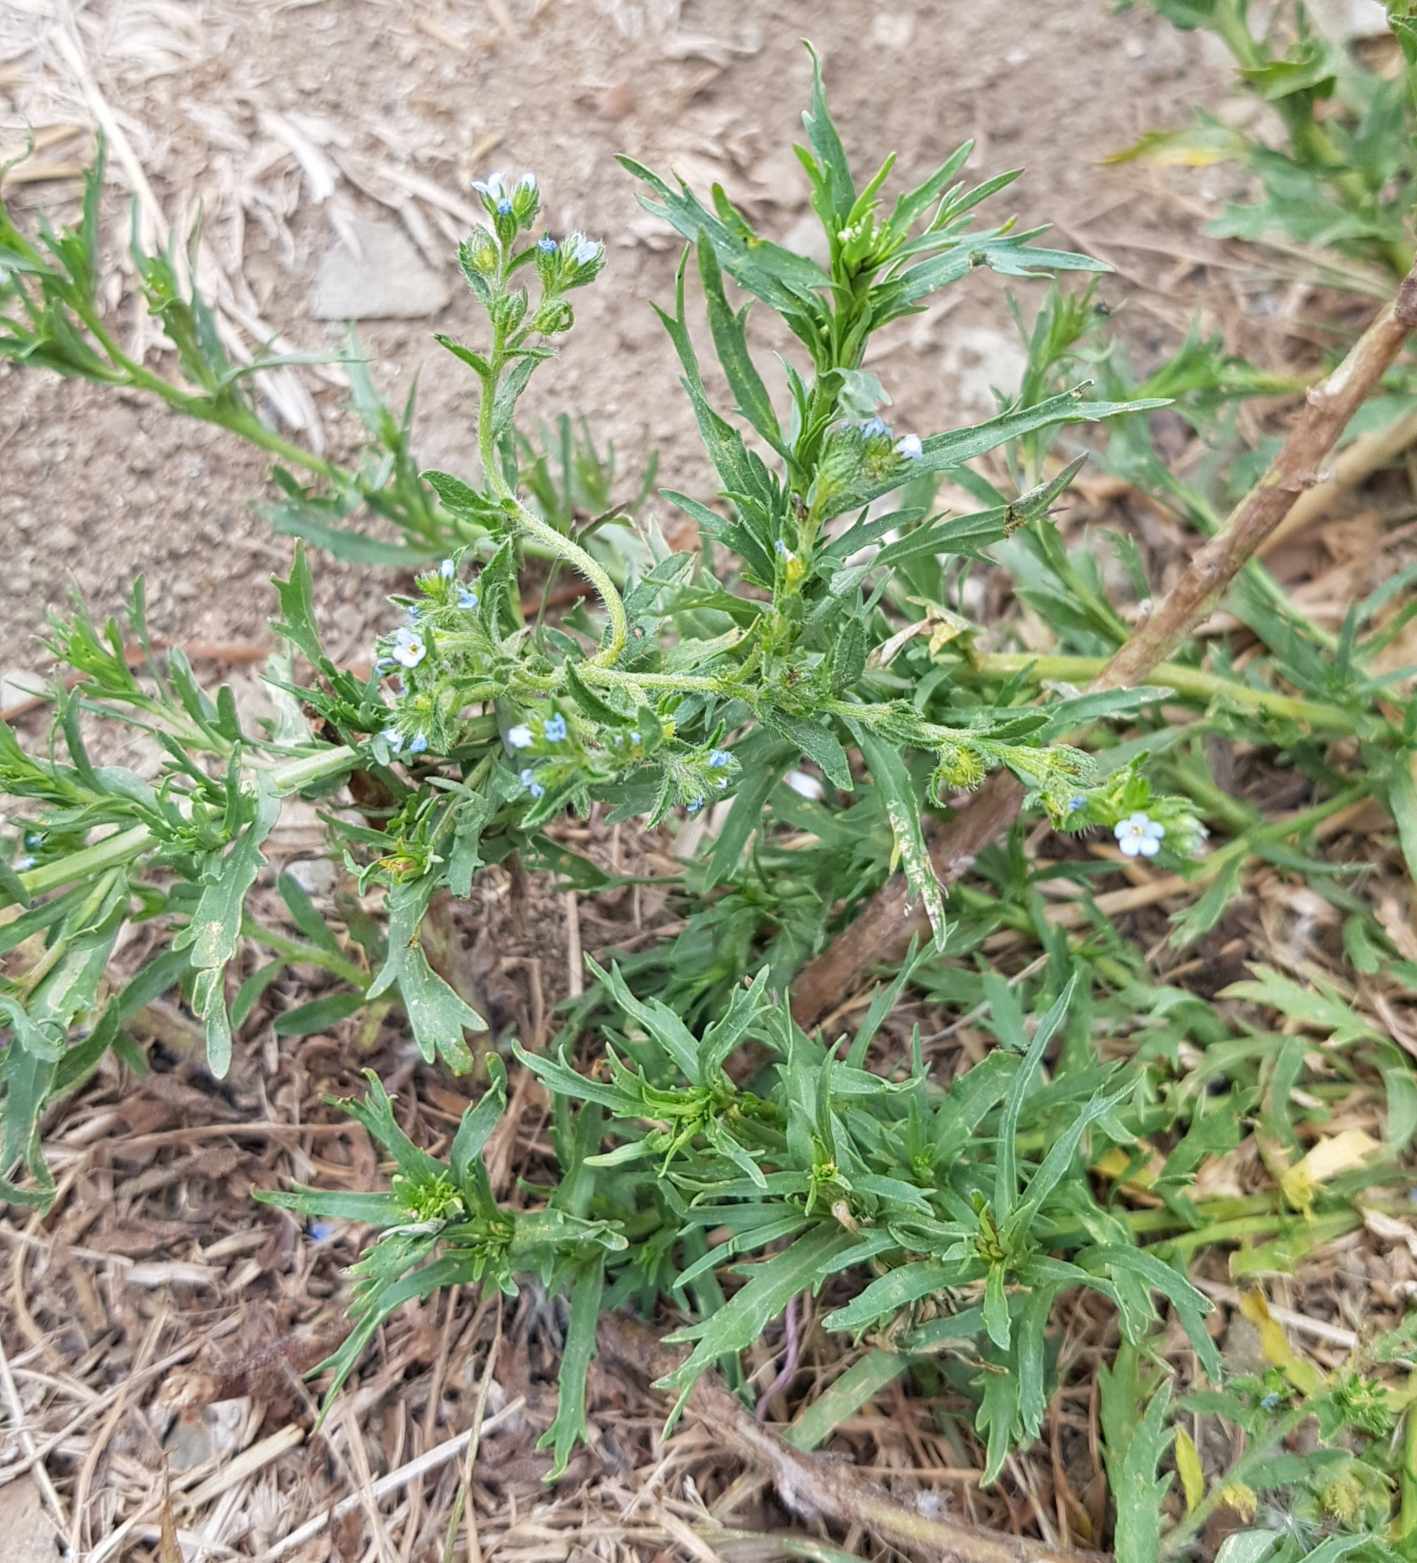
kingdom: Plantae
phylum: Tracheophyta
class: Magnoliopsida
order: Boraginales
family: Boraginaceae
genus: Lappula
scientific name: Lappula squarrosa
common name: European stickseed
